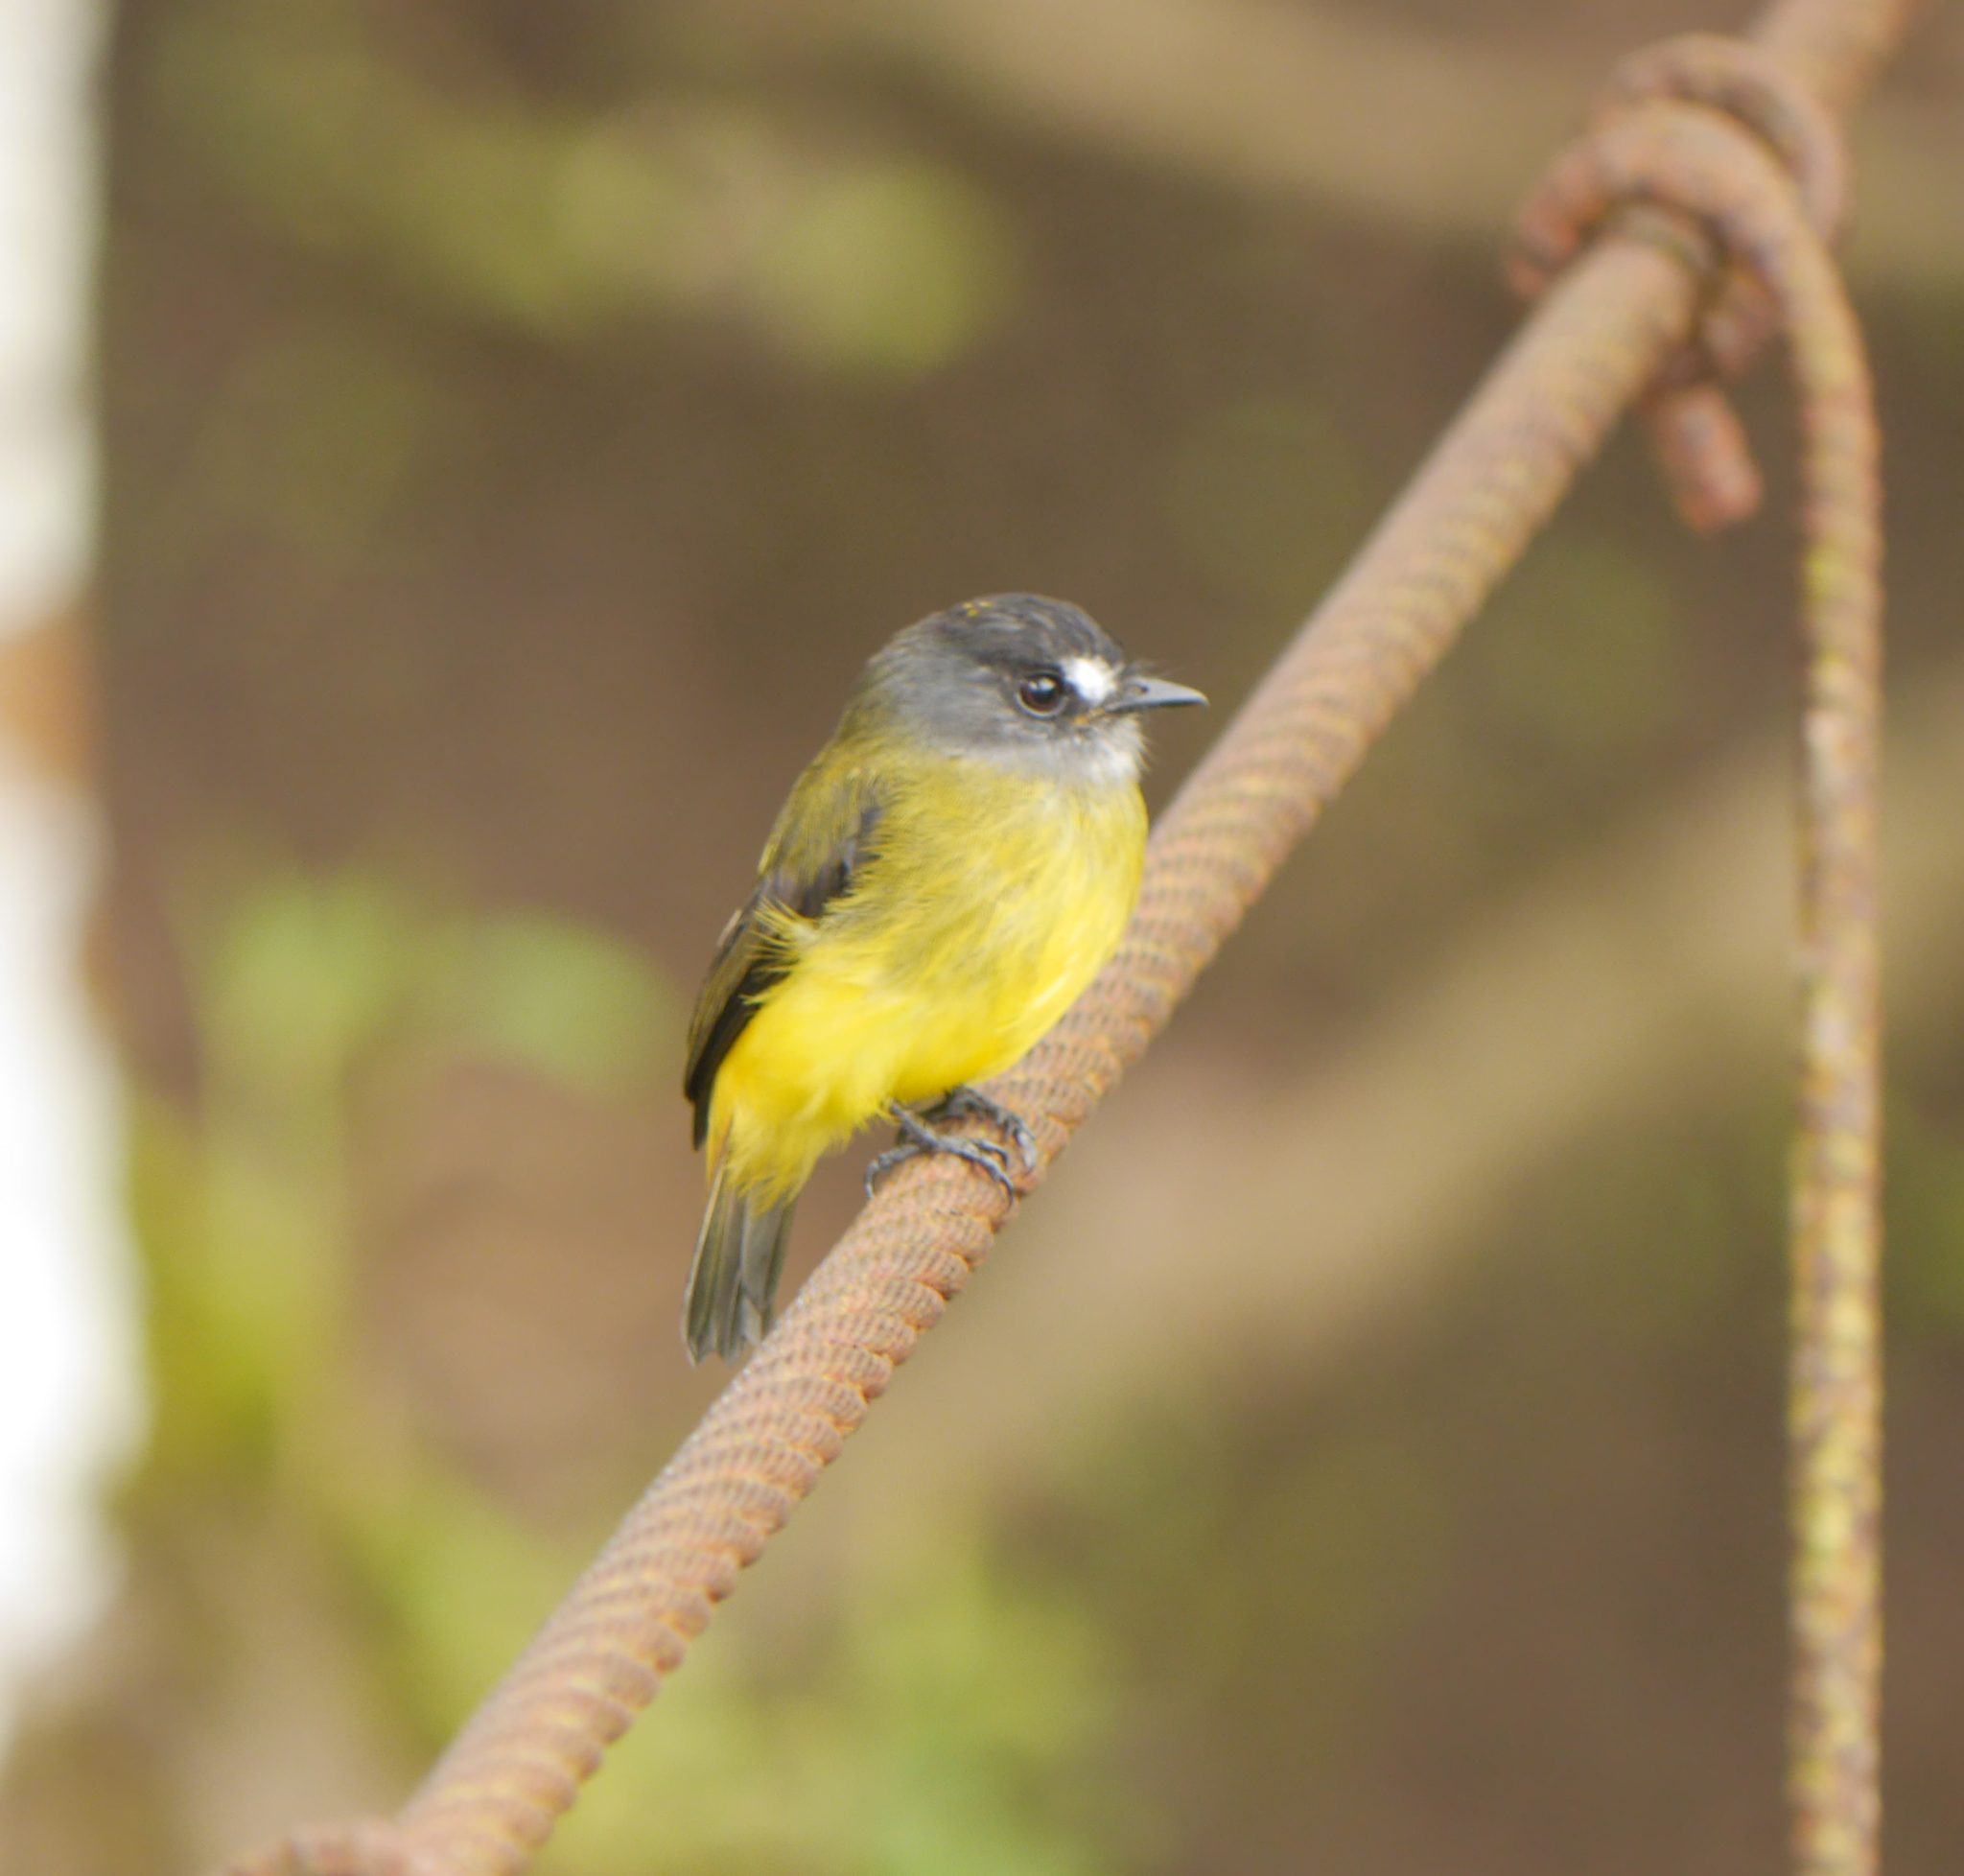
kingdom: Animalia
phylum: Chordata
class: Aves
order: Passeriformes
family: Tyrannidae
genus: Myiotriccus
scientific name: Myiotriccus ornatus
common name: Ornate flycatcher
